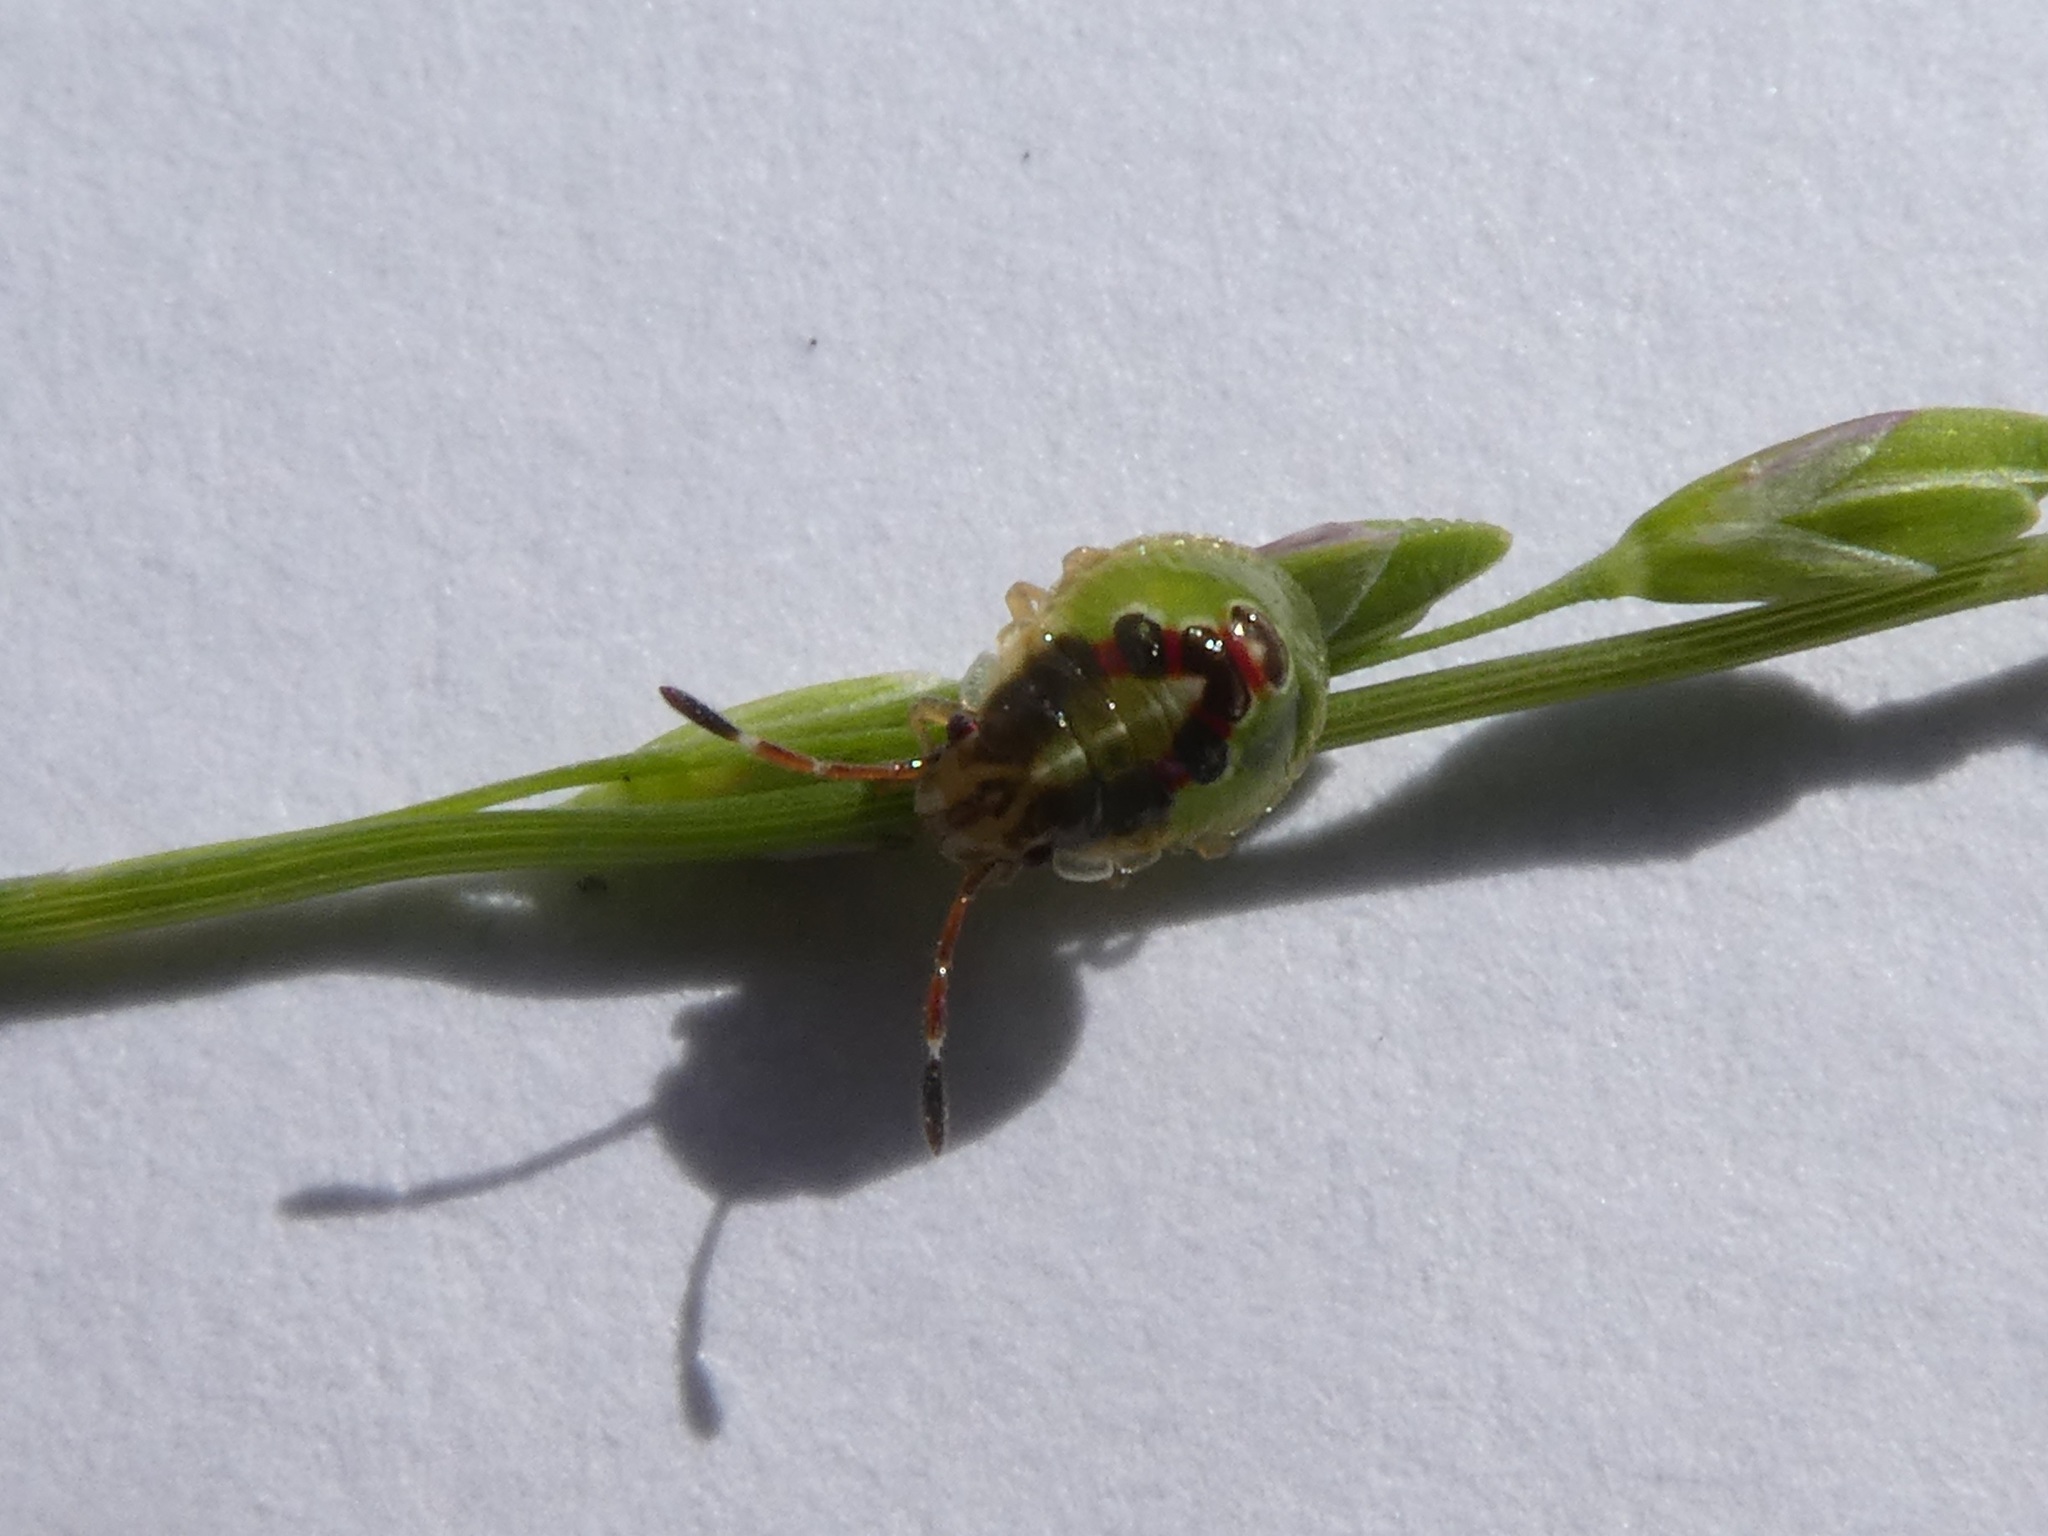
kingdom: Animalia
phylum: Arthropoda
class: Insecta
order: Hemiptera
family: Acanthosomatidae
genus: Oncacontias
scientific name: Oncacontias vittatus
